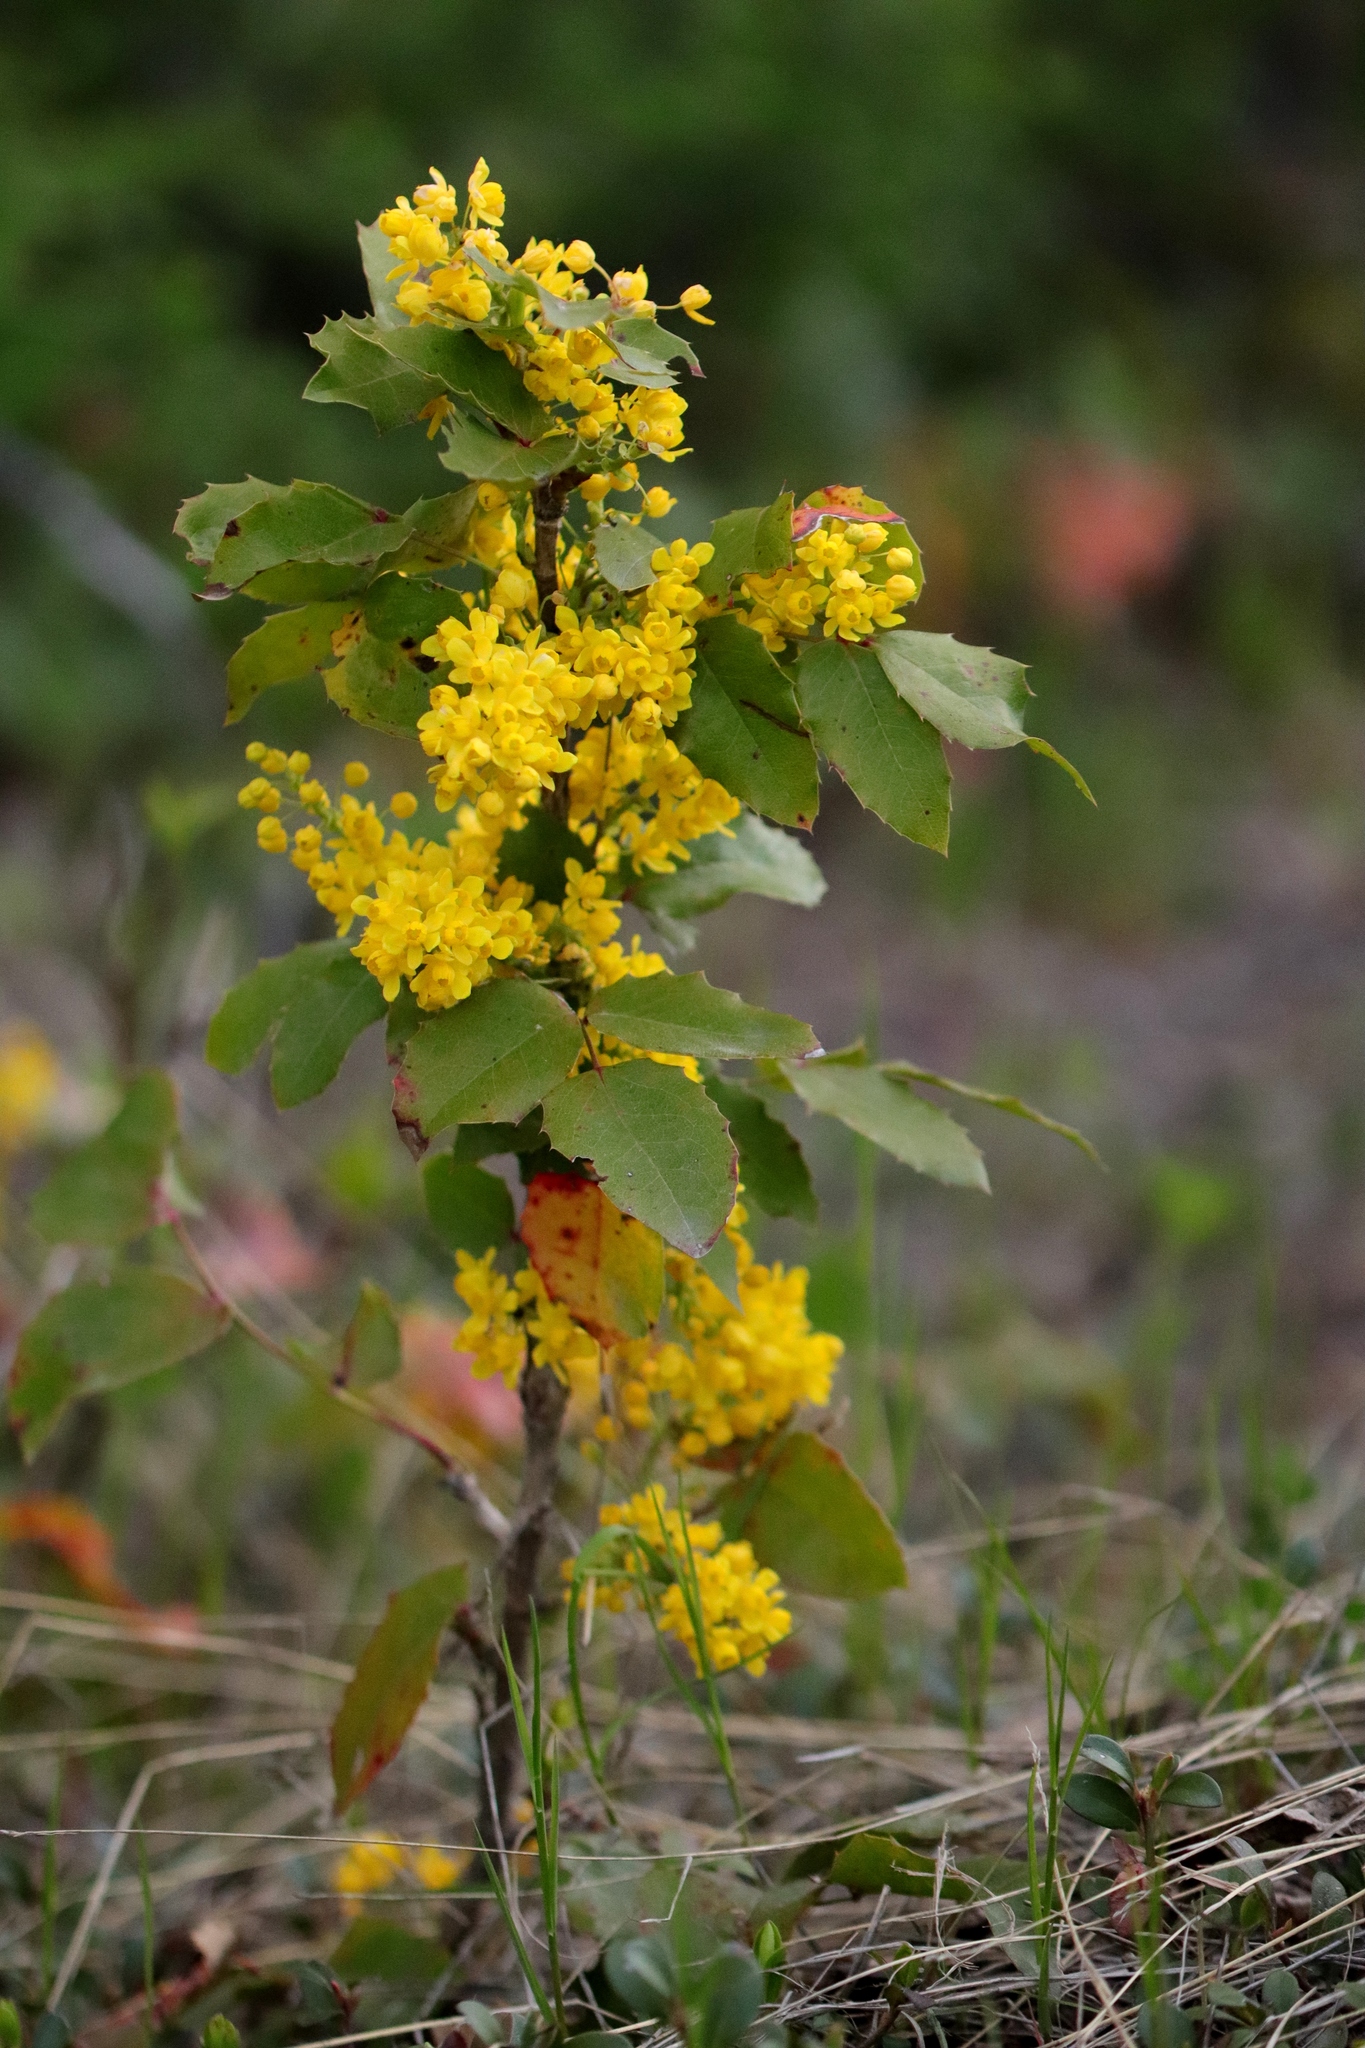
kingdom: Plantae
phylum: Tracheophyta
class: Magnoliopsida
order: Ranunculales
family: Berberidaceae
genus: Mahonia
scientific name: Mahonia repens
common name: Creeping oregon-grape
